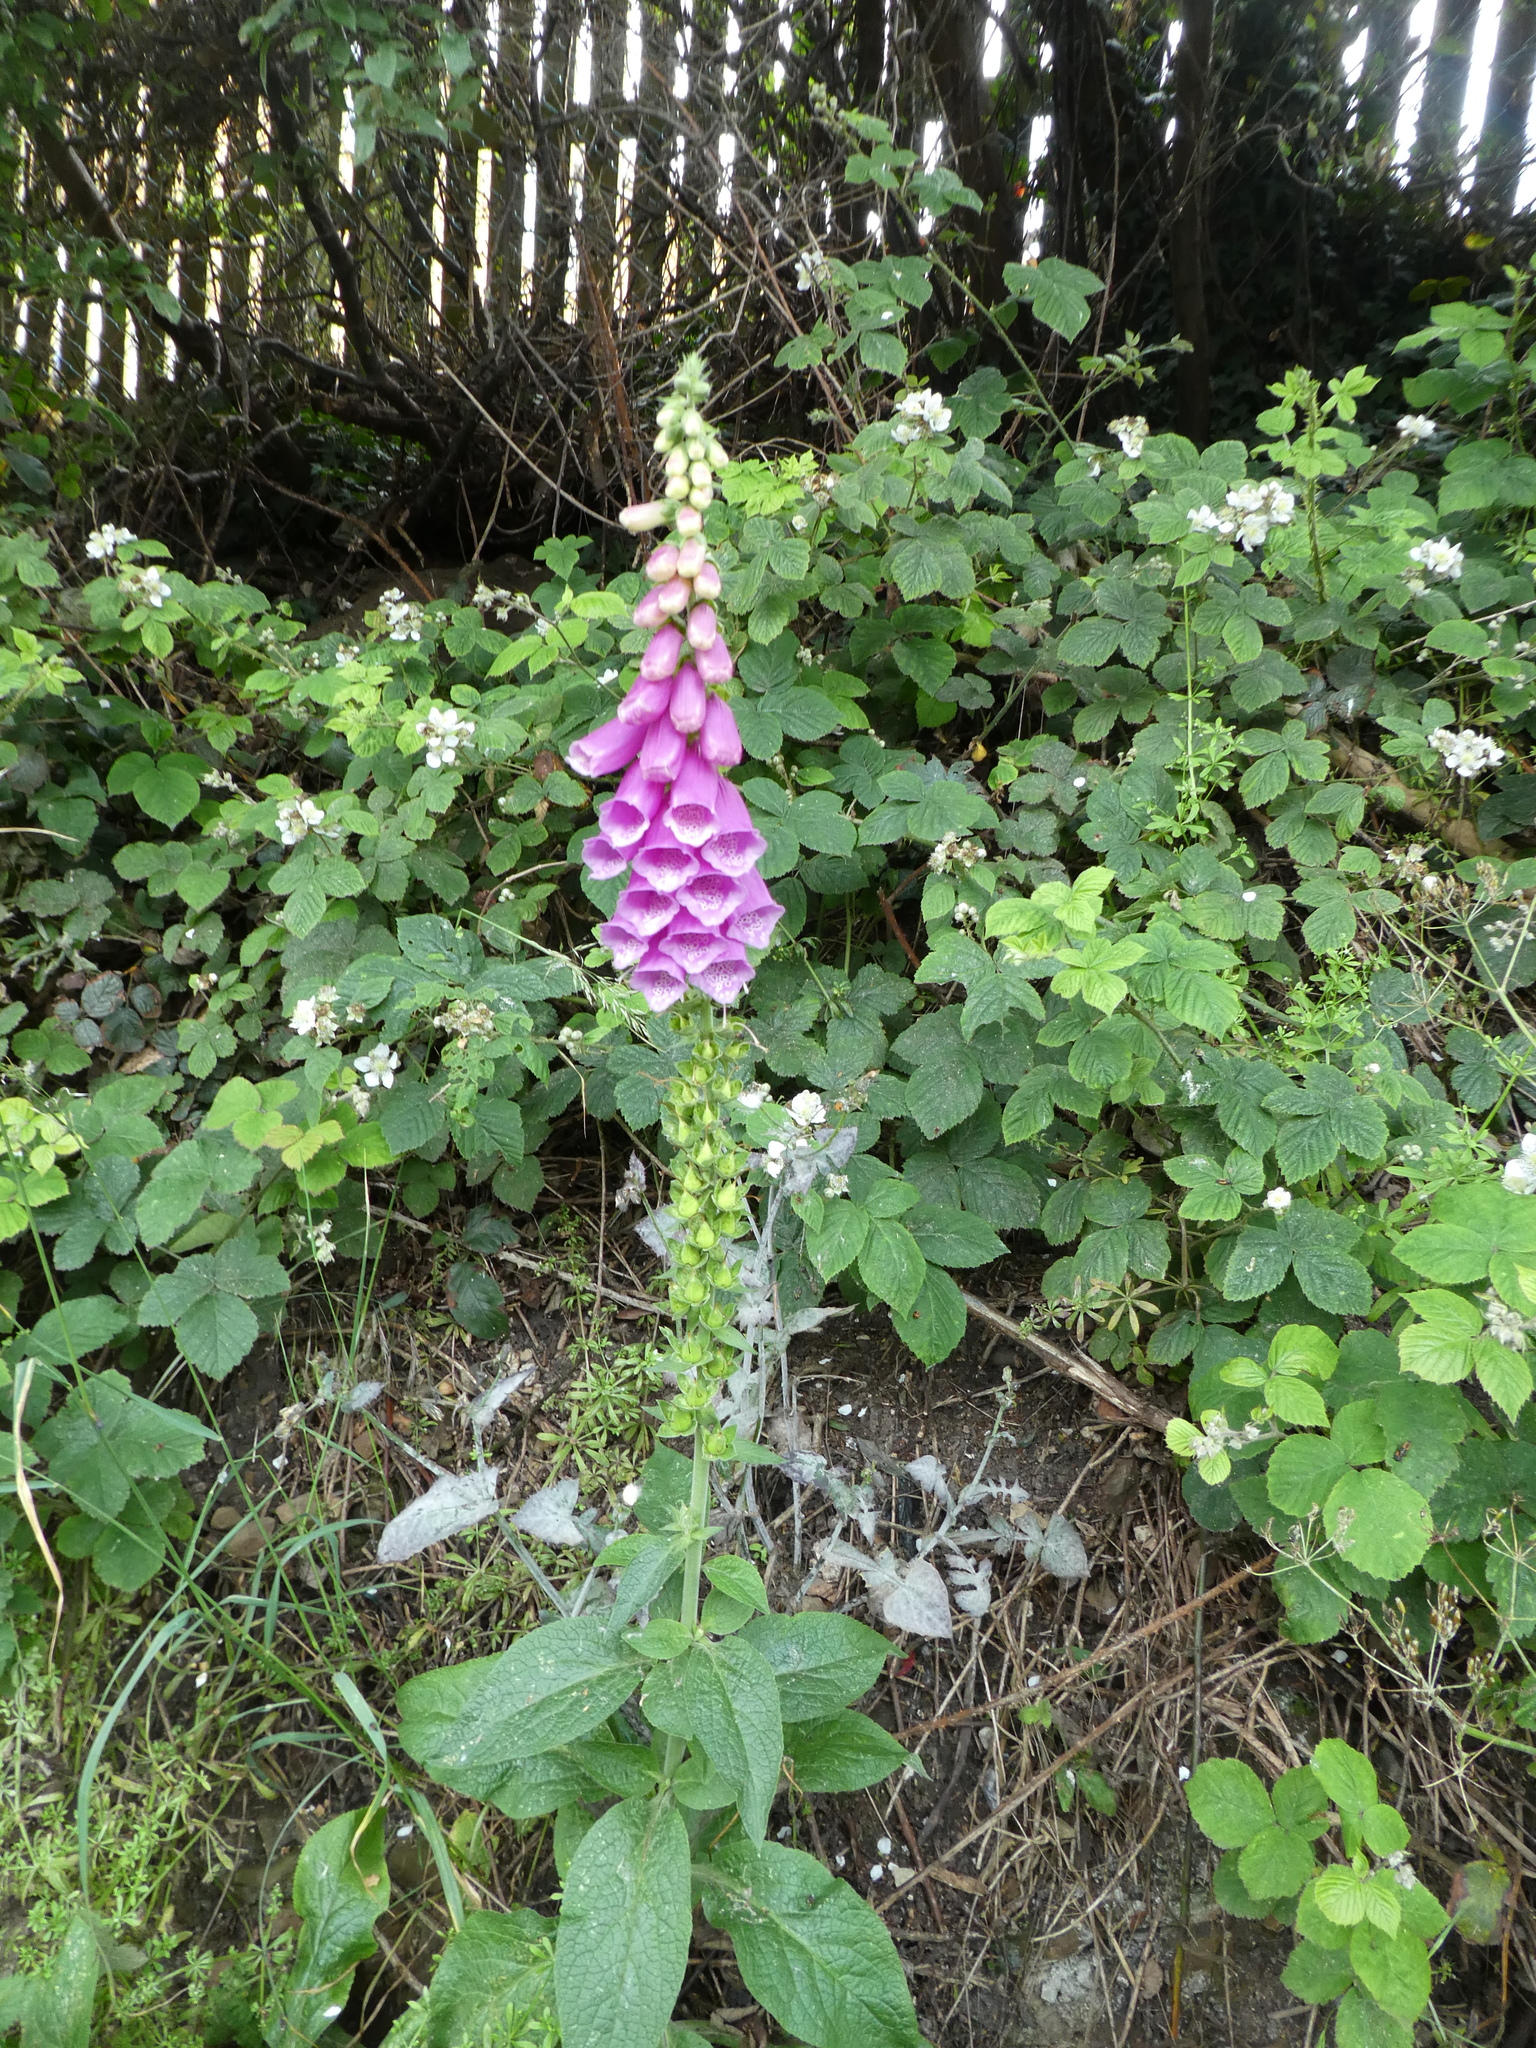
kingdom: Plantae
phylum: Tracheophyta
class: Magnoliopsida
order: Lamiales
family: Plantaginaceae
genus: Digitalis
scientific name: Digitalis purpurea
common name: Foxglove
